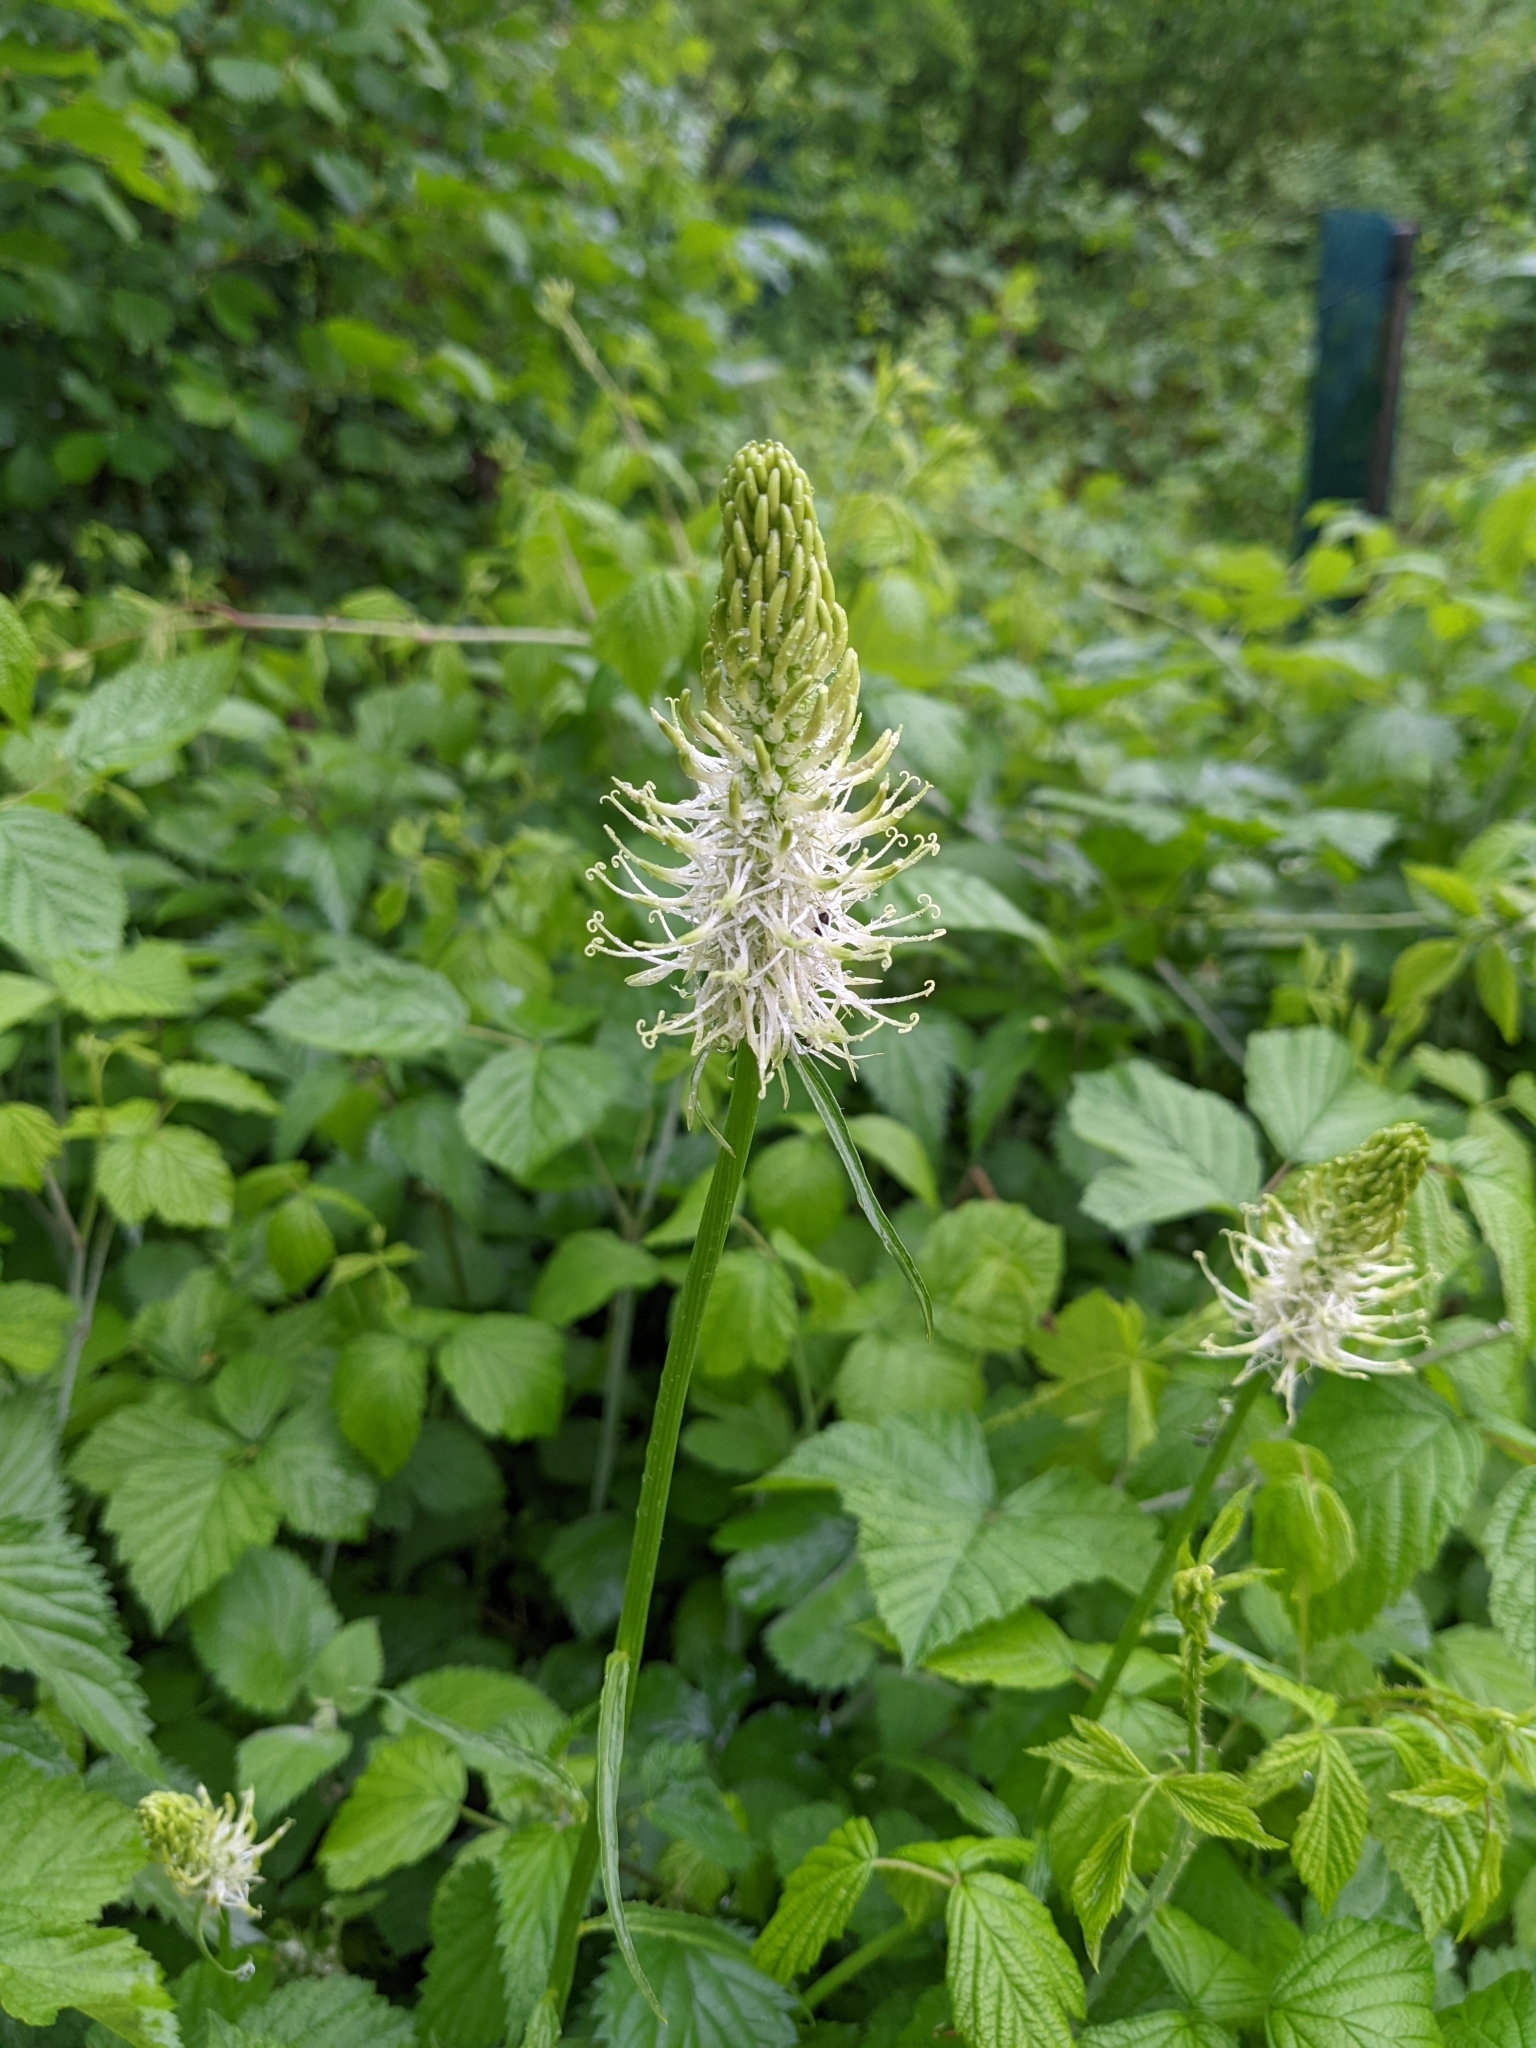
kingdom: Plantae
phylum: Tracheophyta
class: Magnoliopsida
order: Asterales
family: Campanulaceae
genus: Phyteuma
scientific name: Phyteuma spicatum
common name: Spiked rampion
